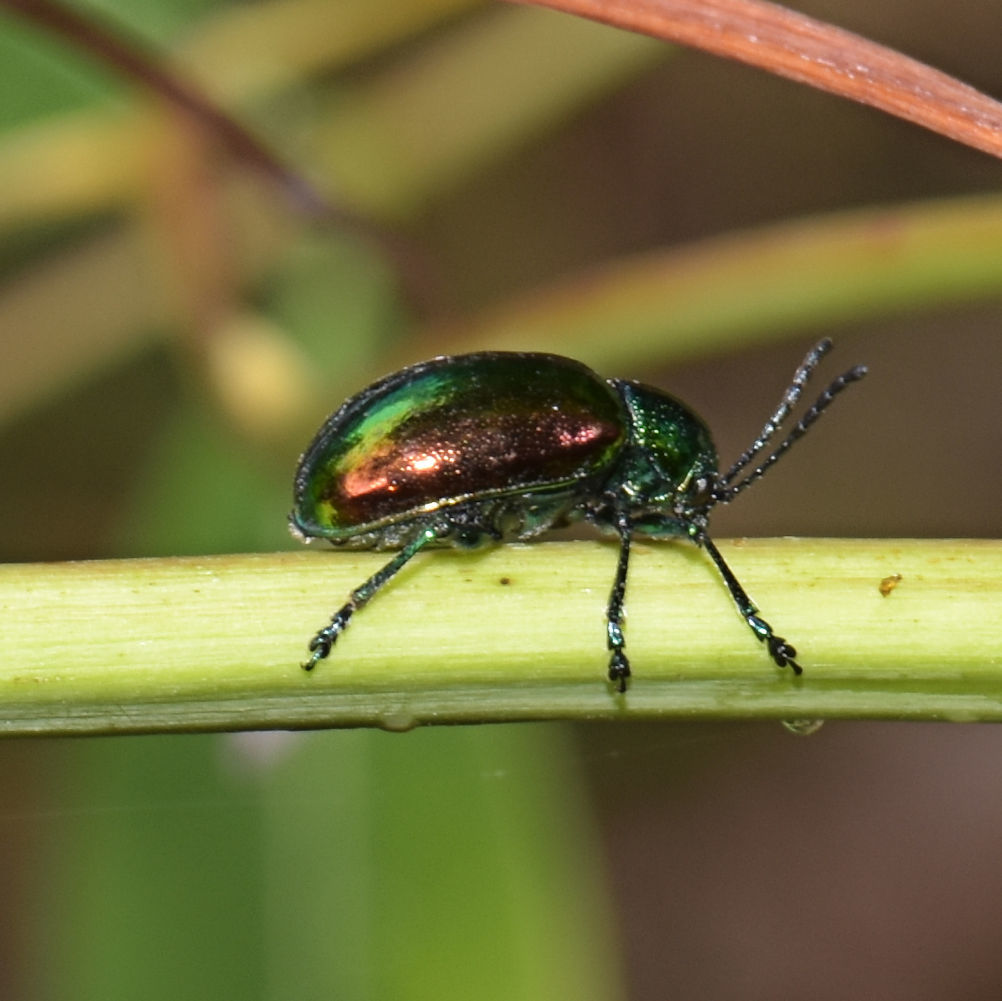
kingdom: Animalia
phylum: Arthropoda
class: Insecta
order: Coleoptera
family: Chrysomelidae
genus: Chrysochus
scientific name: Chrysochus auratus
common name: Dogbane leaf beetle
